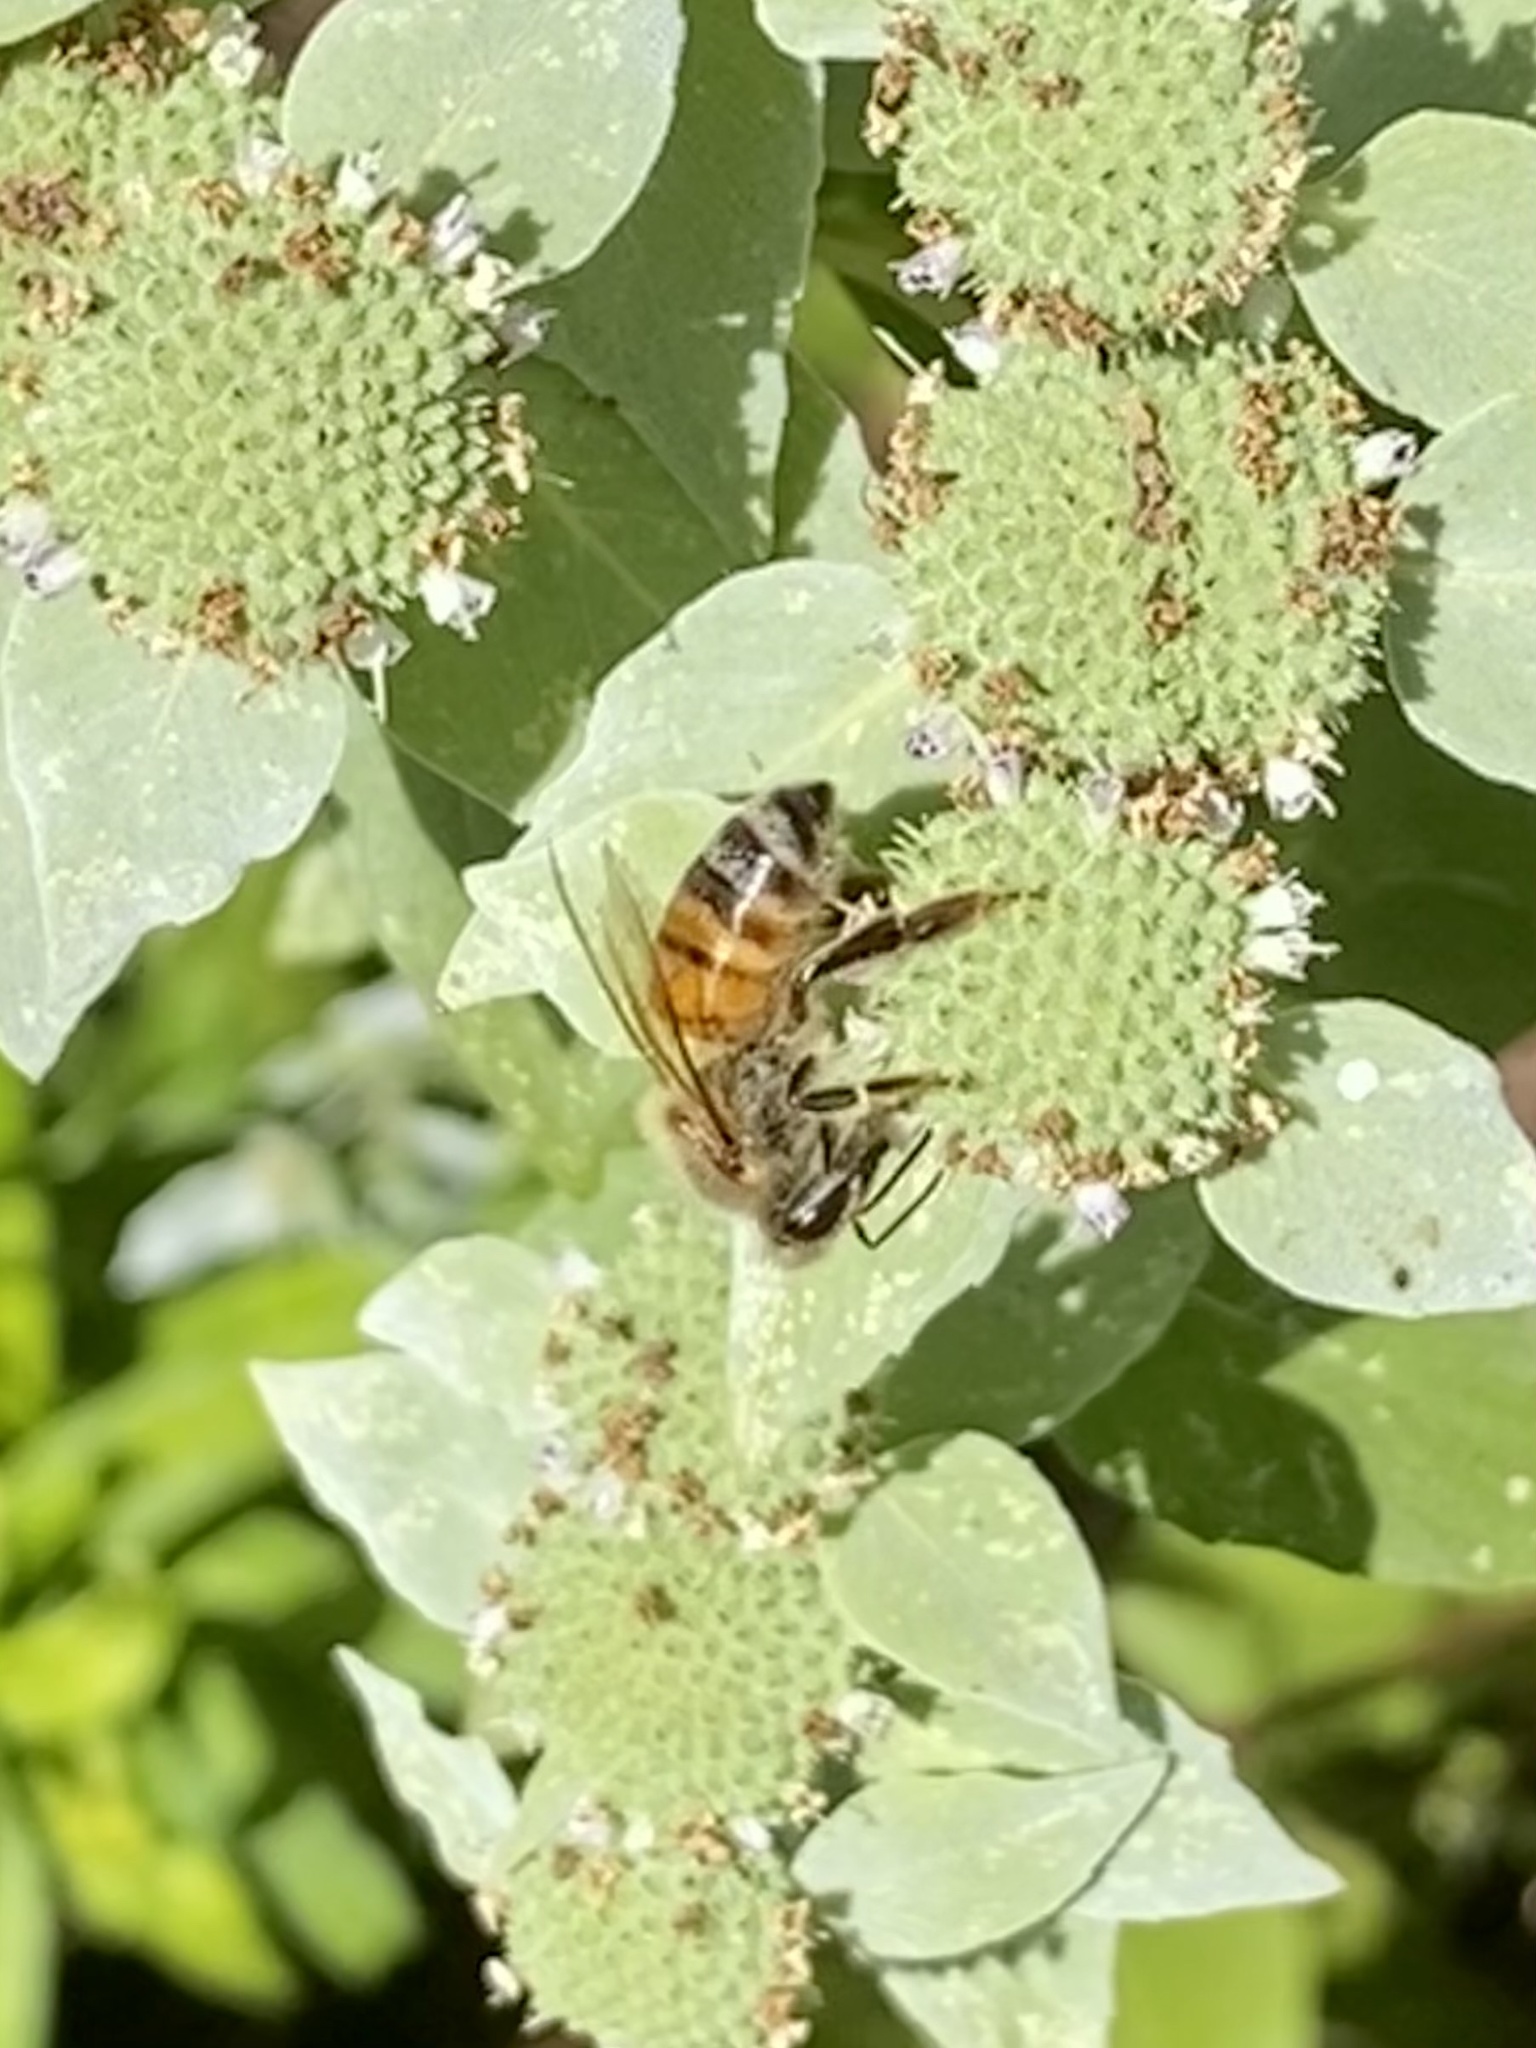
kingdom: Animalia
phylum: Arthropoda
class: Insecta
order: Hymenoptera
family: Apidae
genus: Apis
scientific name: Apis mellifera
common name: Honey bee
